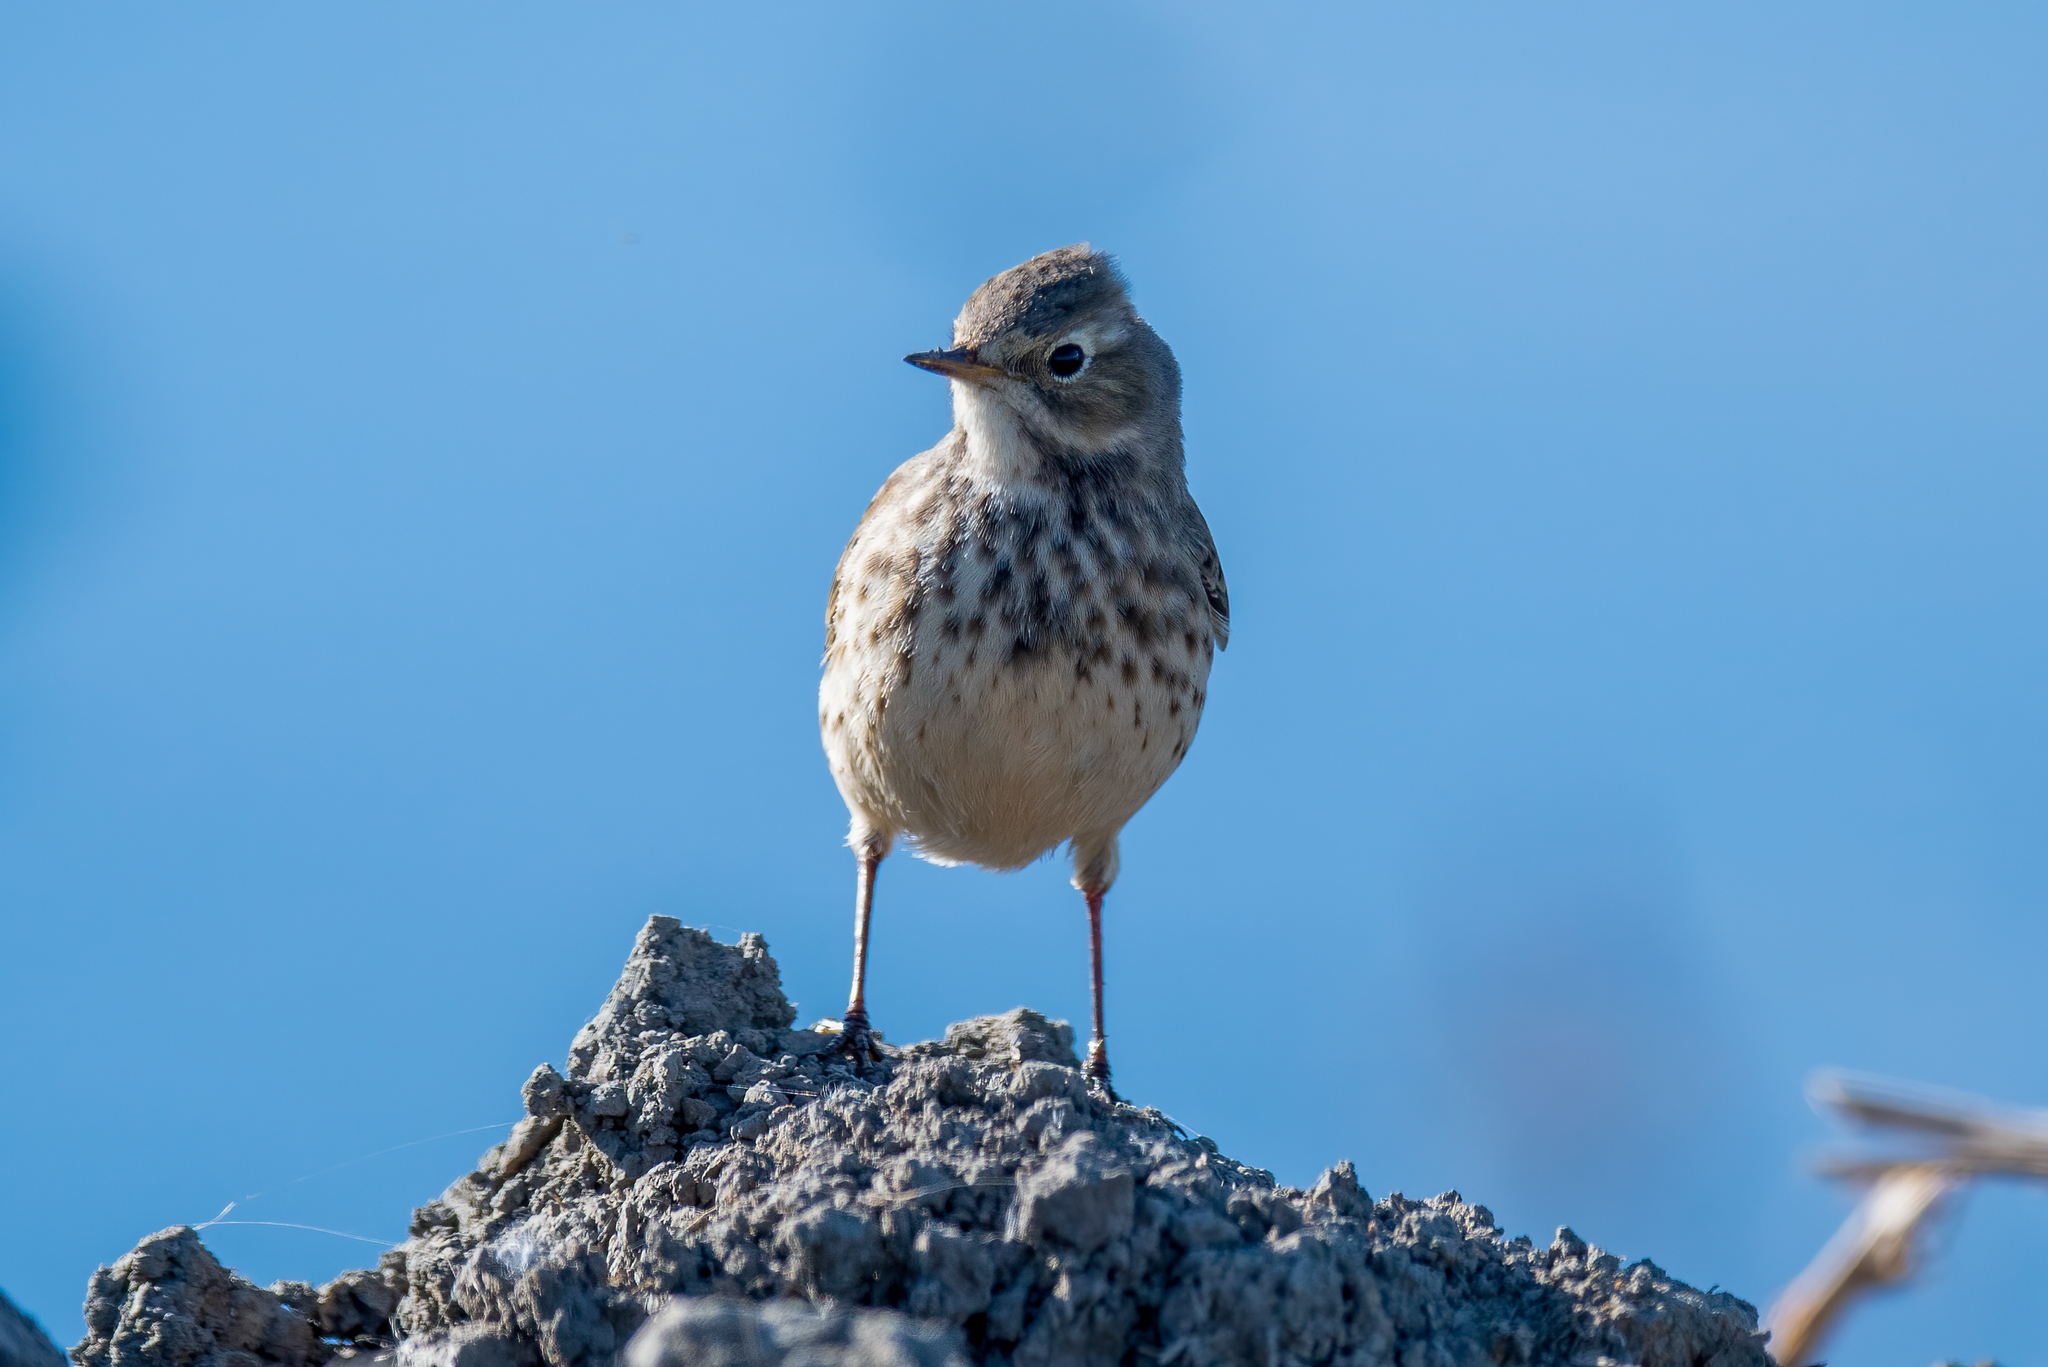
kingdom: Animalia
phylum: Chordata
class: Aves
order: Passeriformes
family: Motacillidae
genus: Anthus
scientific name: Anthus rubescens
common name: Buff-bellied pipit
